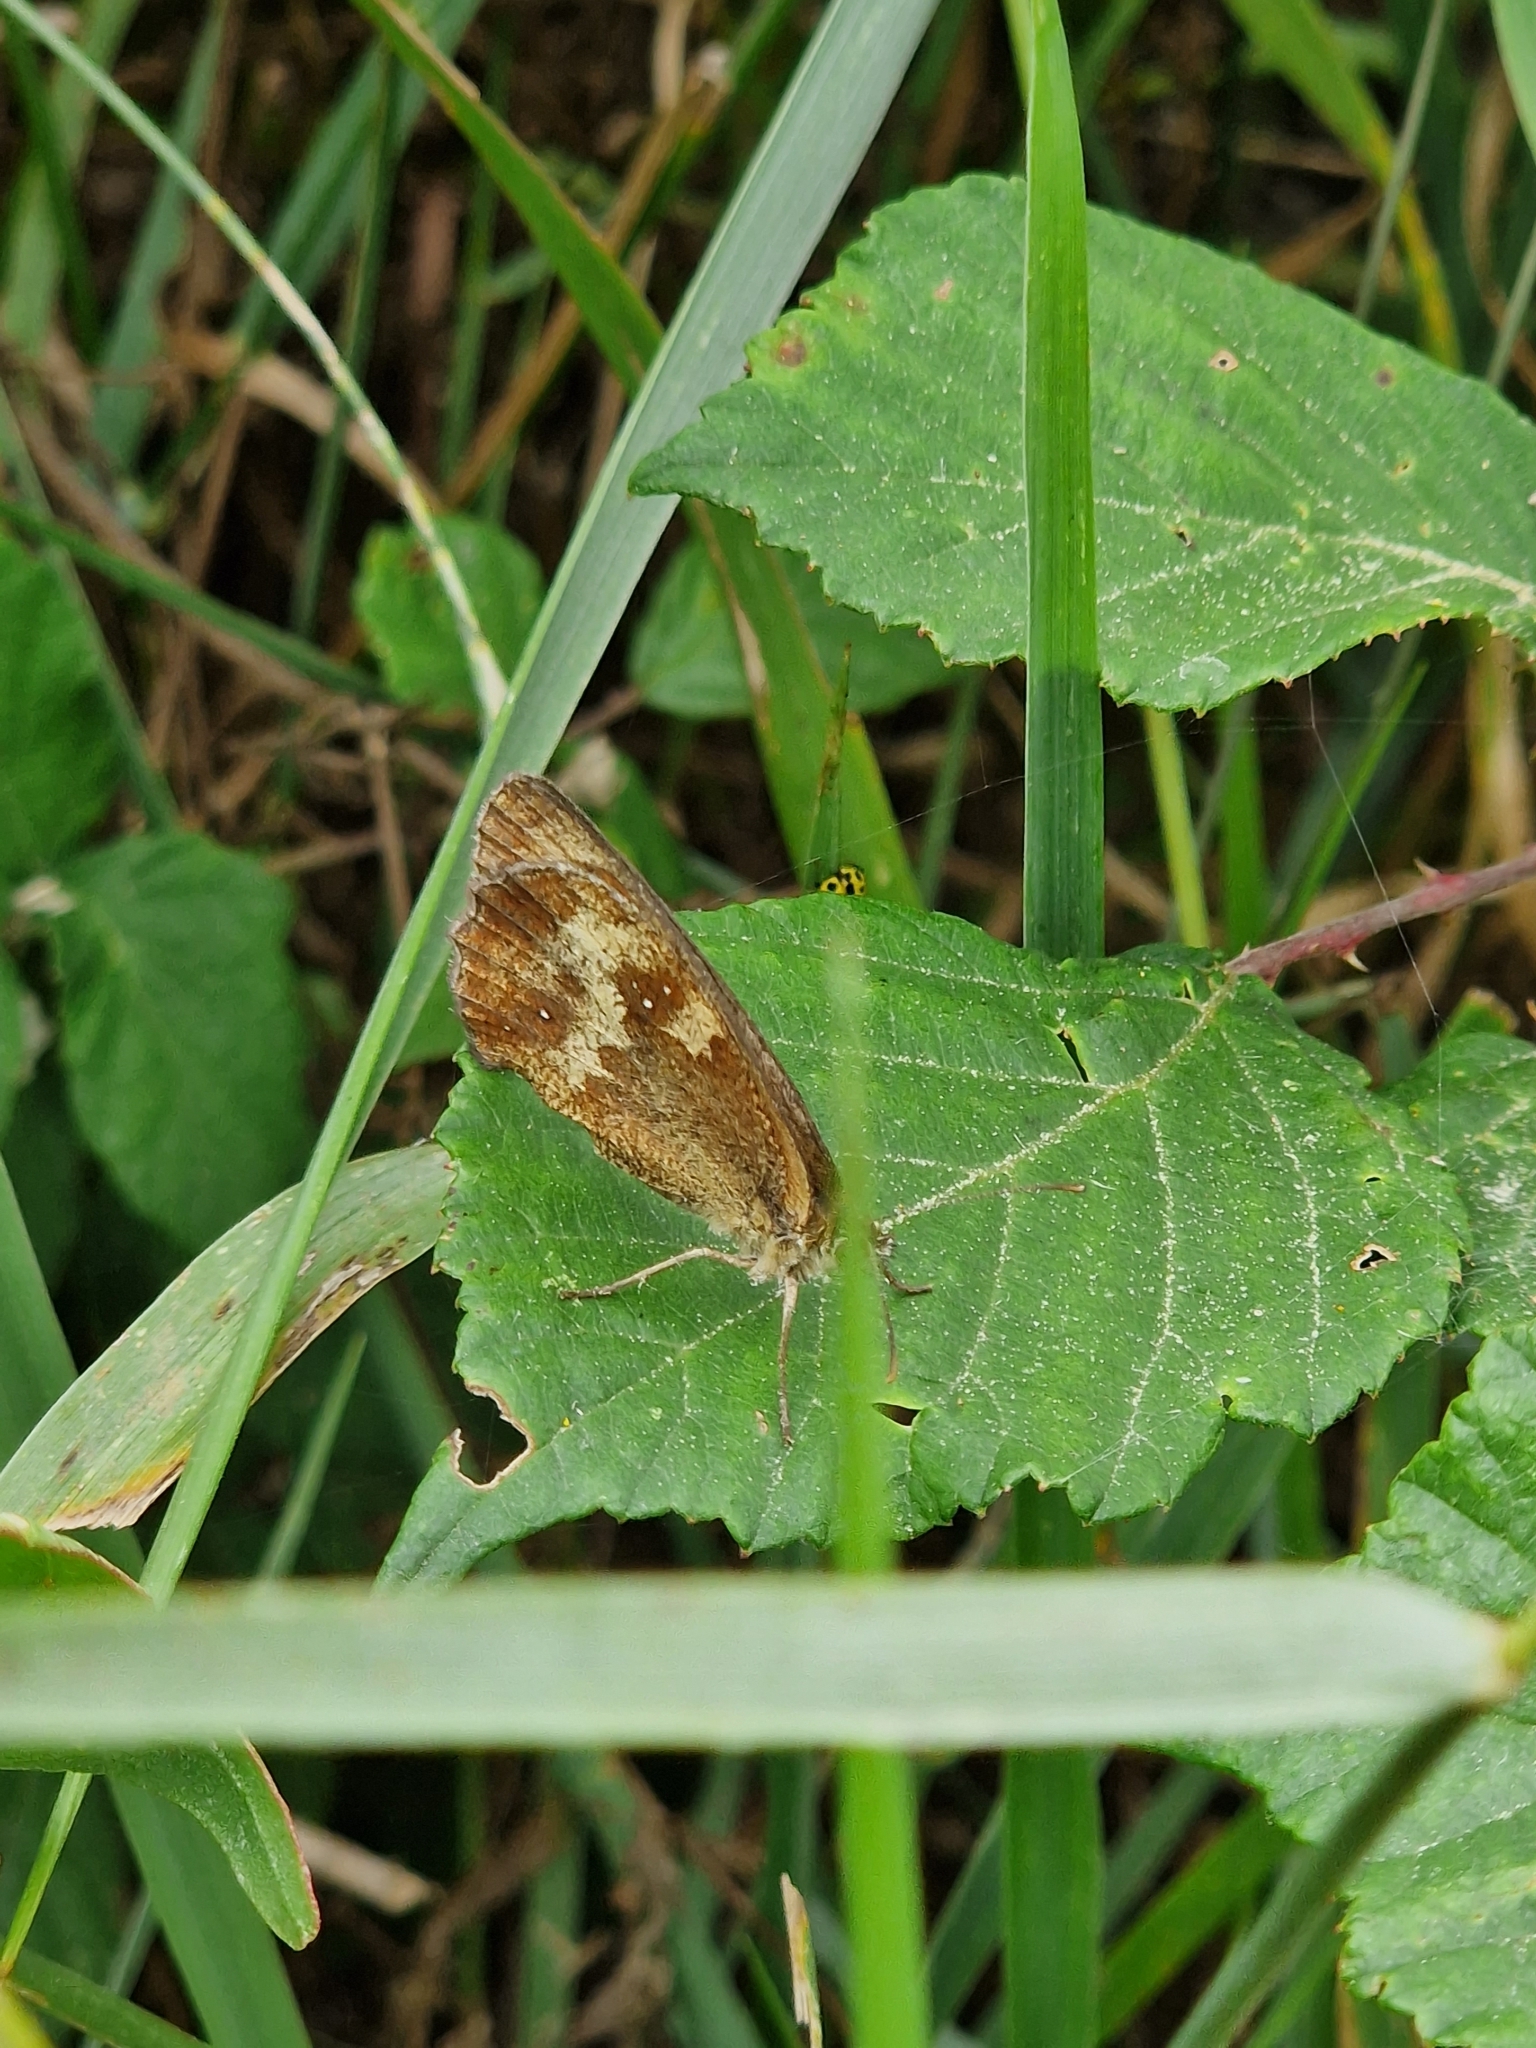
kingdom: Animalia
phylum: Arthropoda
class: Insecta
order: Lepidoptera
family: Nymphalidae
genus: Pyronia
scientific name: Pyronia tithonus
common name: Gatekeeper
